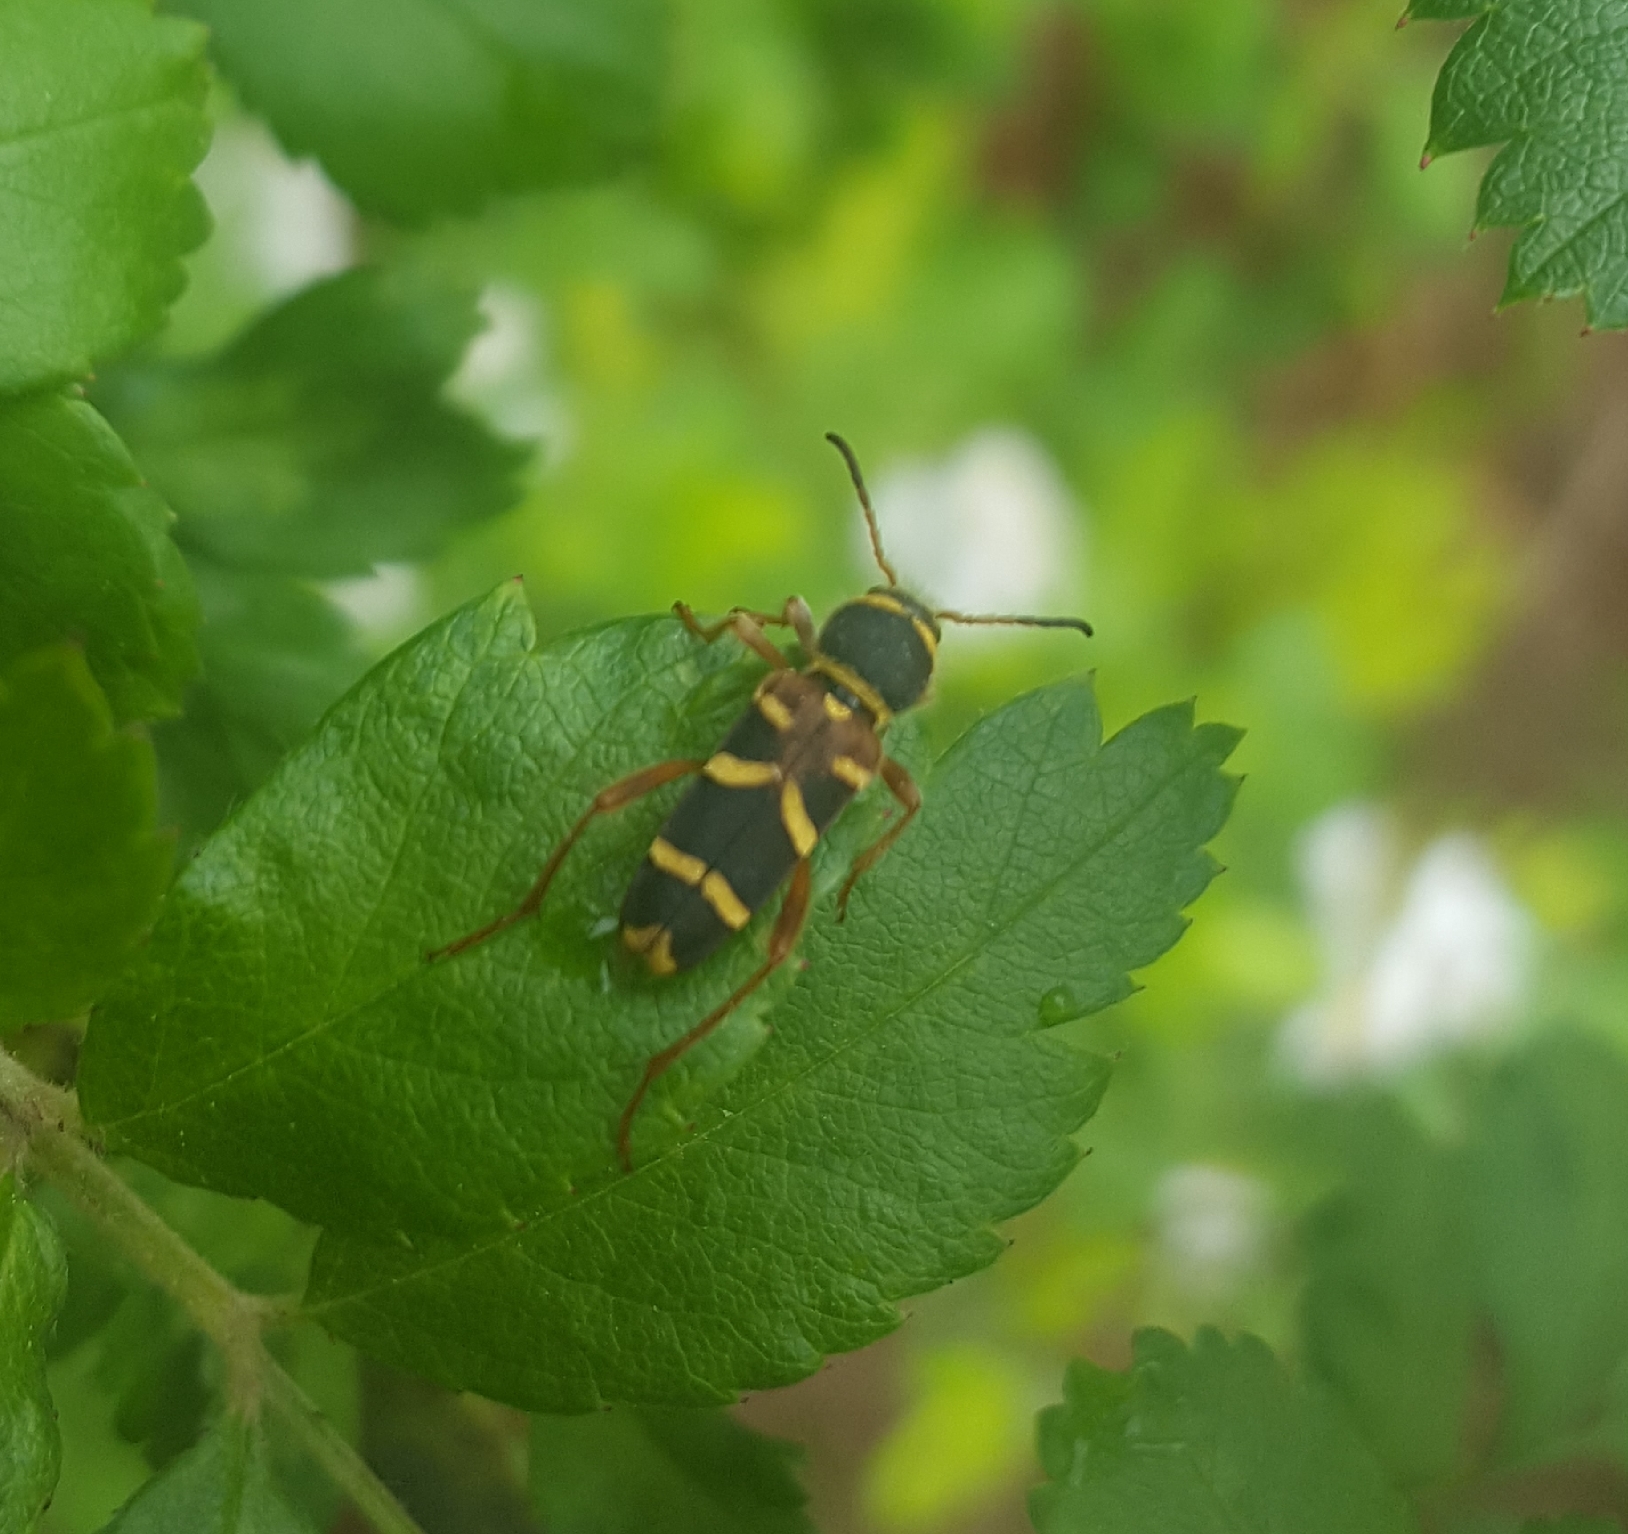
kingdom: Animalia
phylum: Arthropoda
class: Insecta
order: Coleoptera
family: Cerambycidae
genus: Clytus
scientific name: Clytus marginicollis
